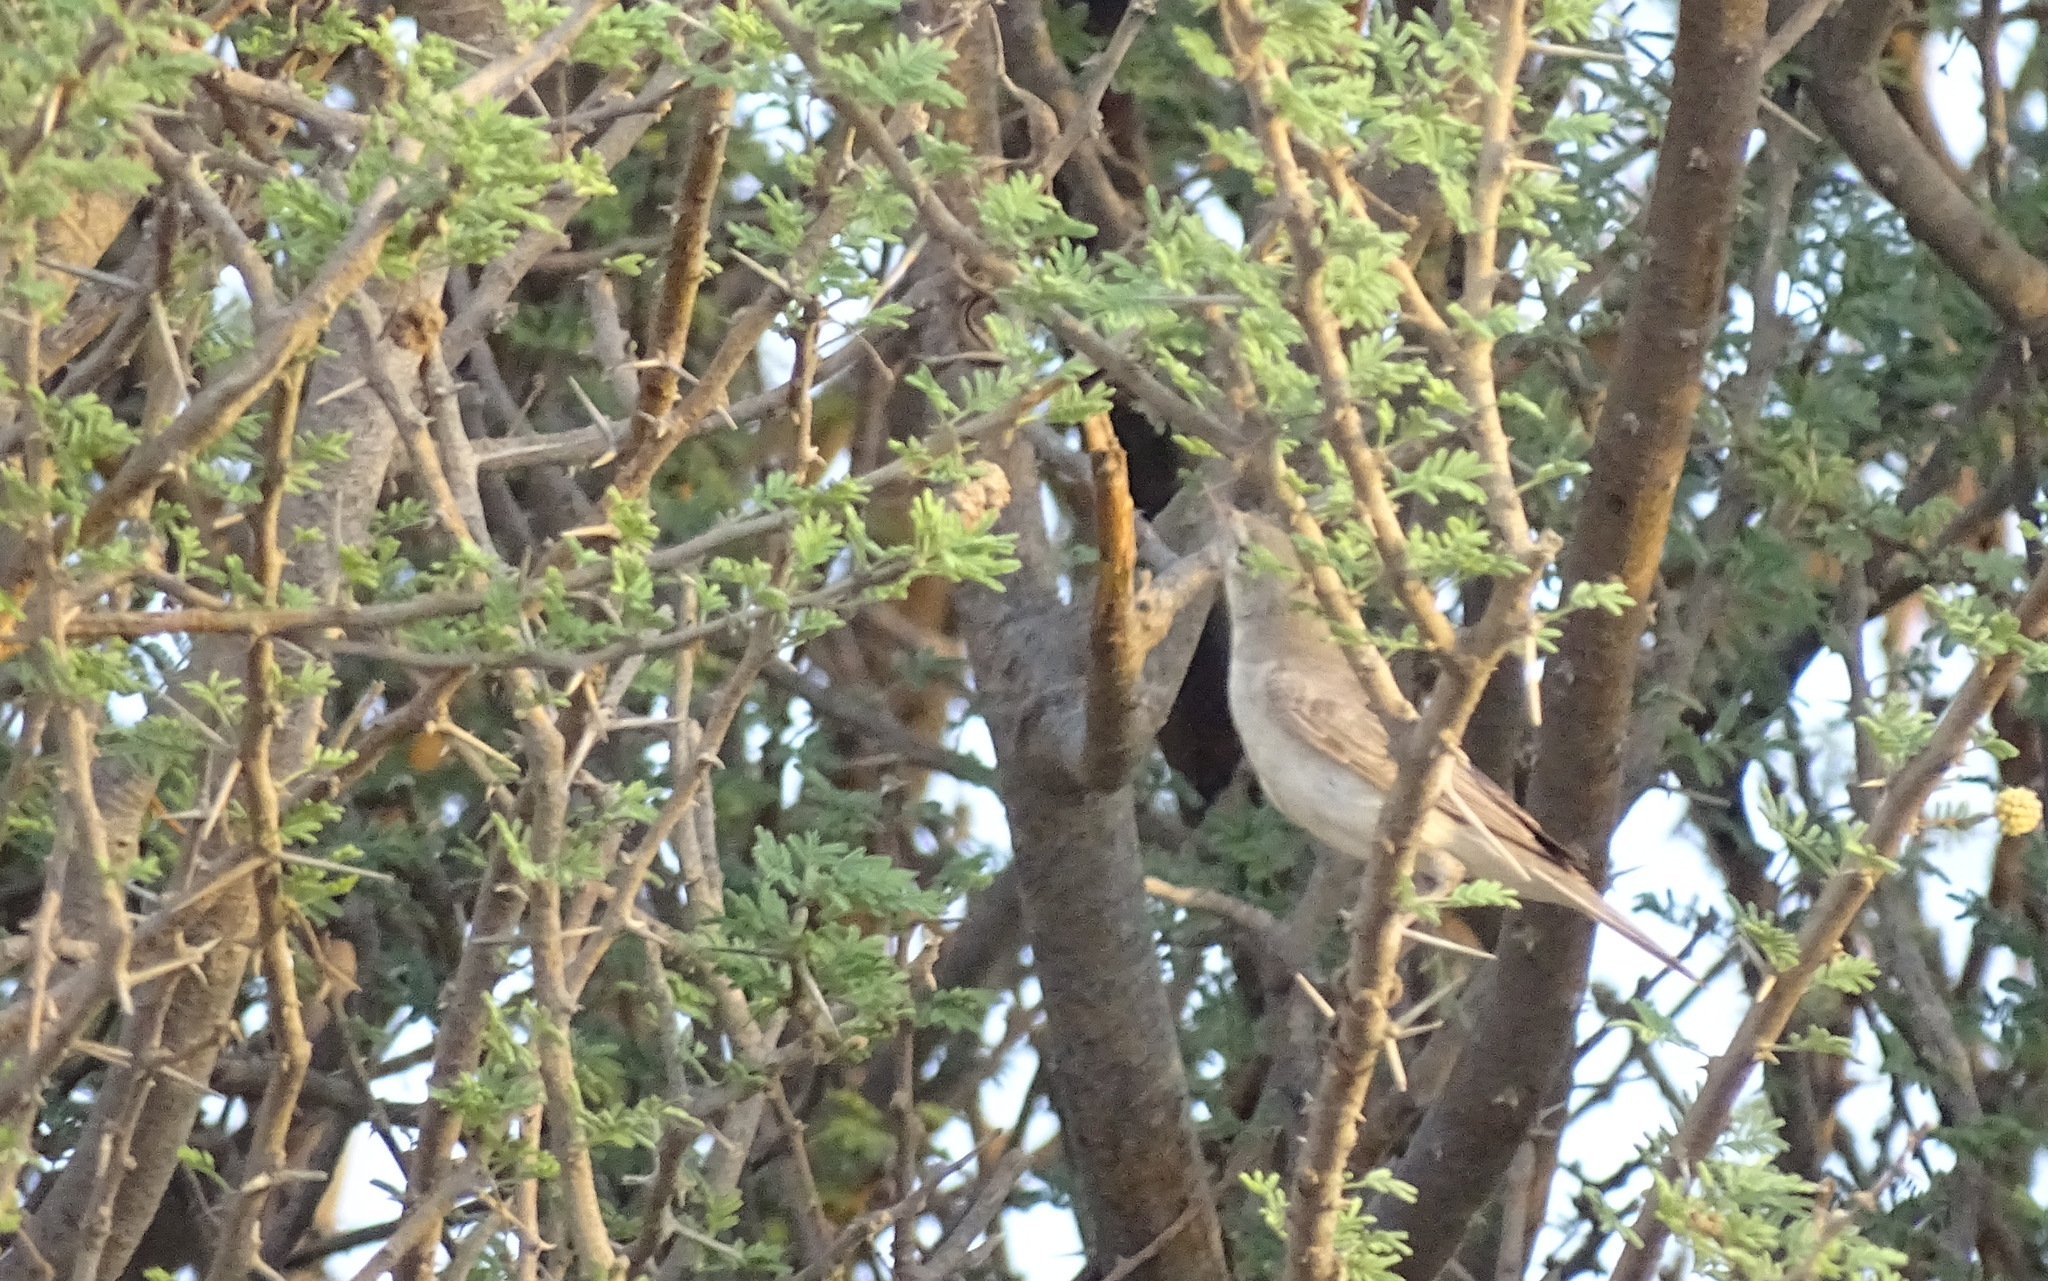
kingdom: Animalia
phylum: Chordata
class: Aves
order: Passeriformes
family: Acrocephalidae
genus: Iduna
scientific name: Iduna pallida
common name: Eastern olivaceous warbler
